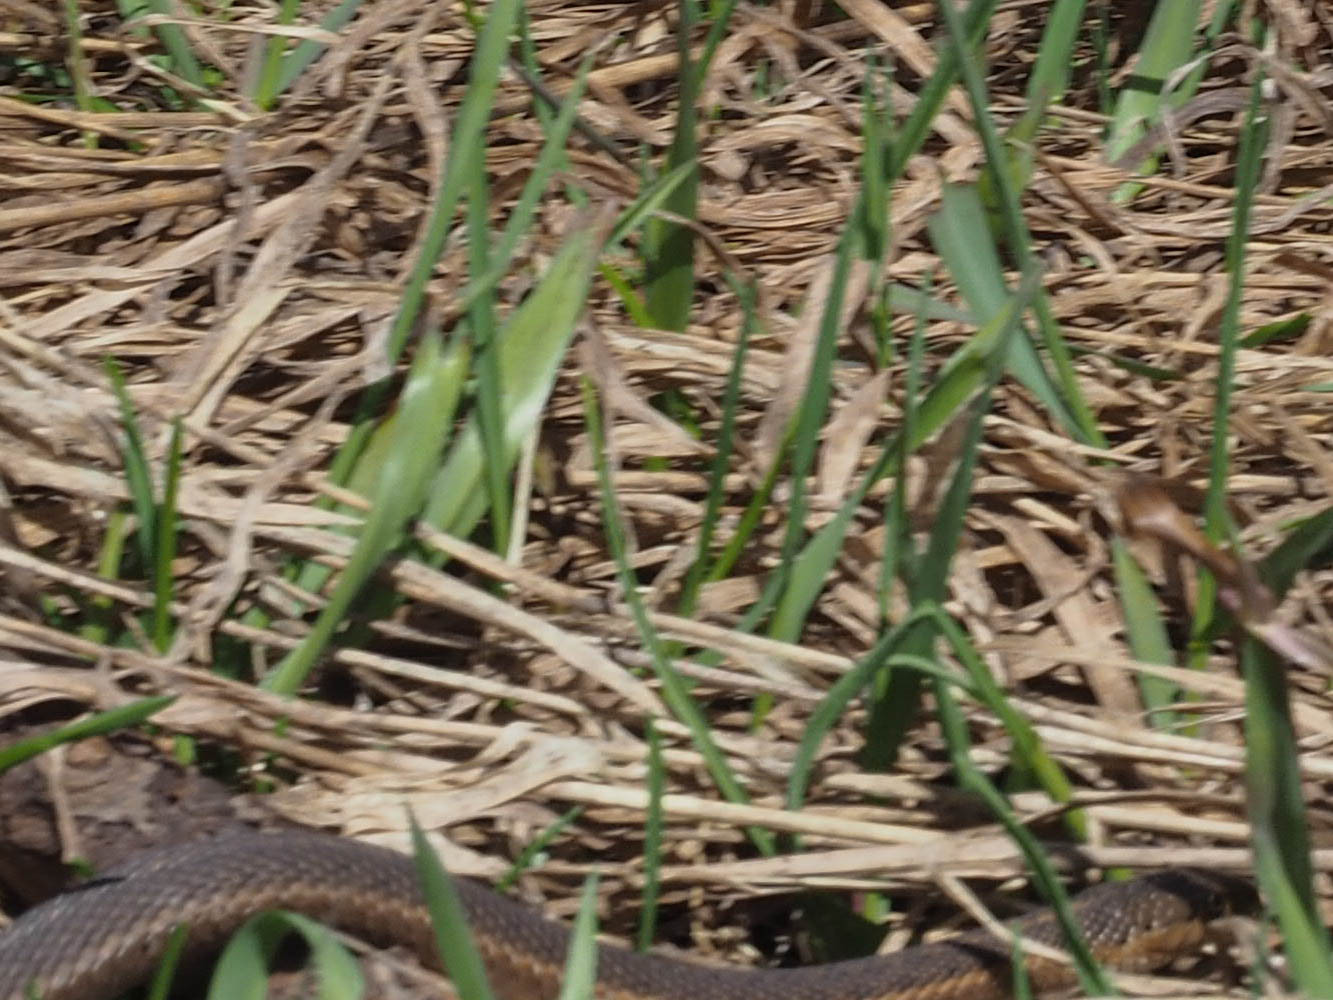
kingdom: Animalia
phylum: Chordata
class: Squamata
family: Colubridae
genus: Thamnophis
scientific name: Thamnophis elegans
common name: Western terrestrial garter snake
